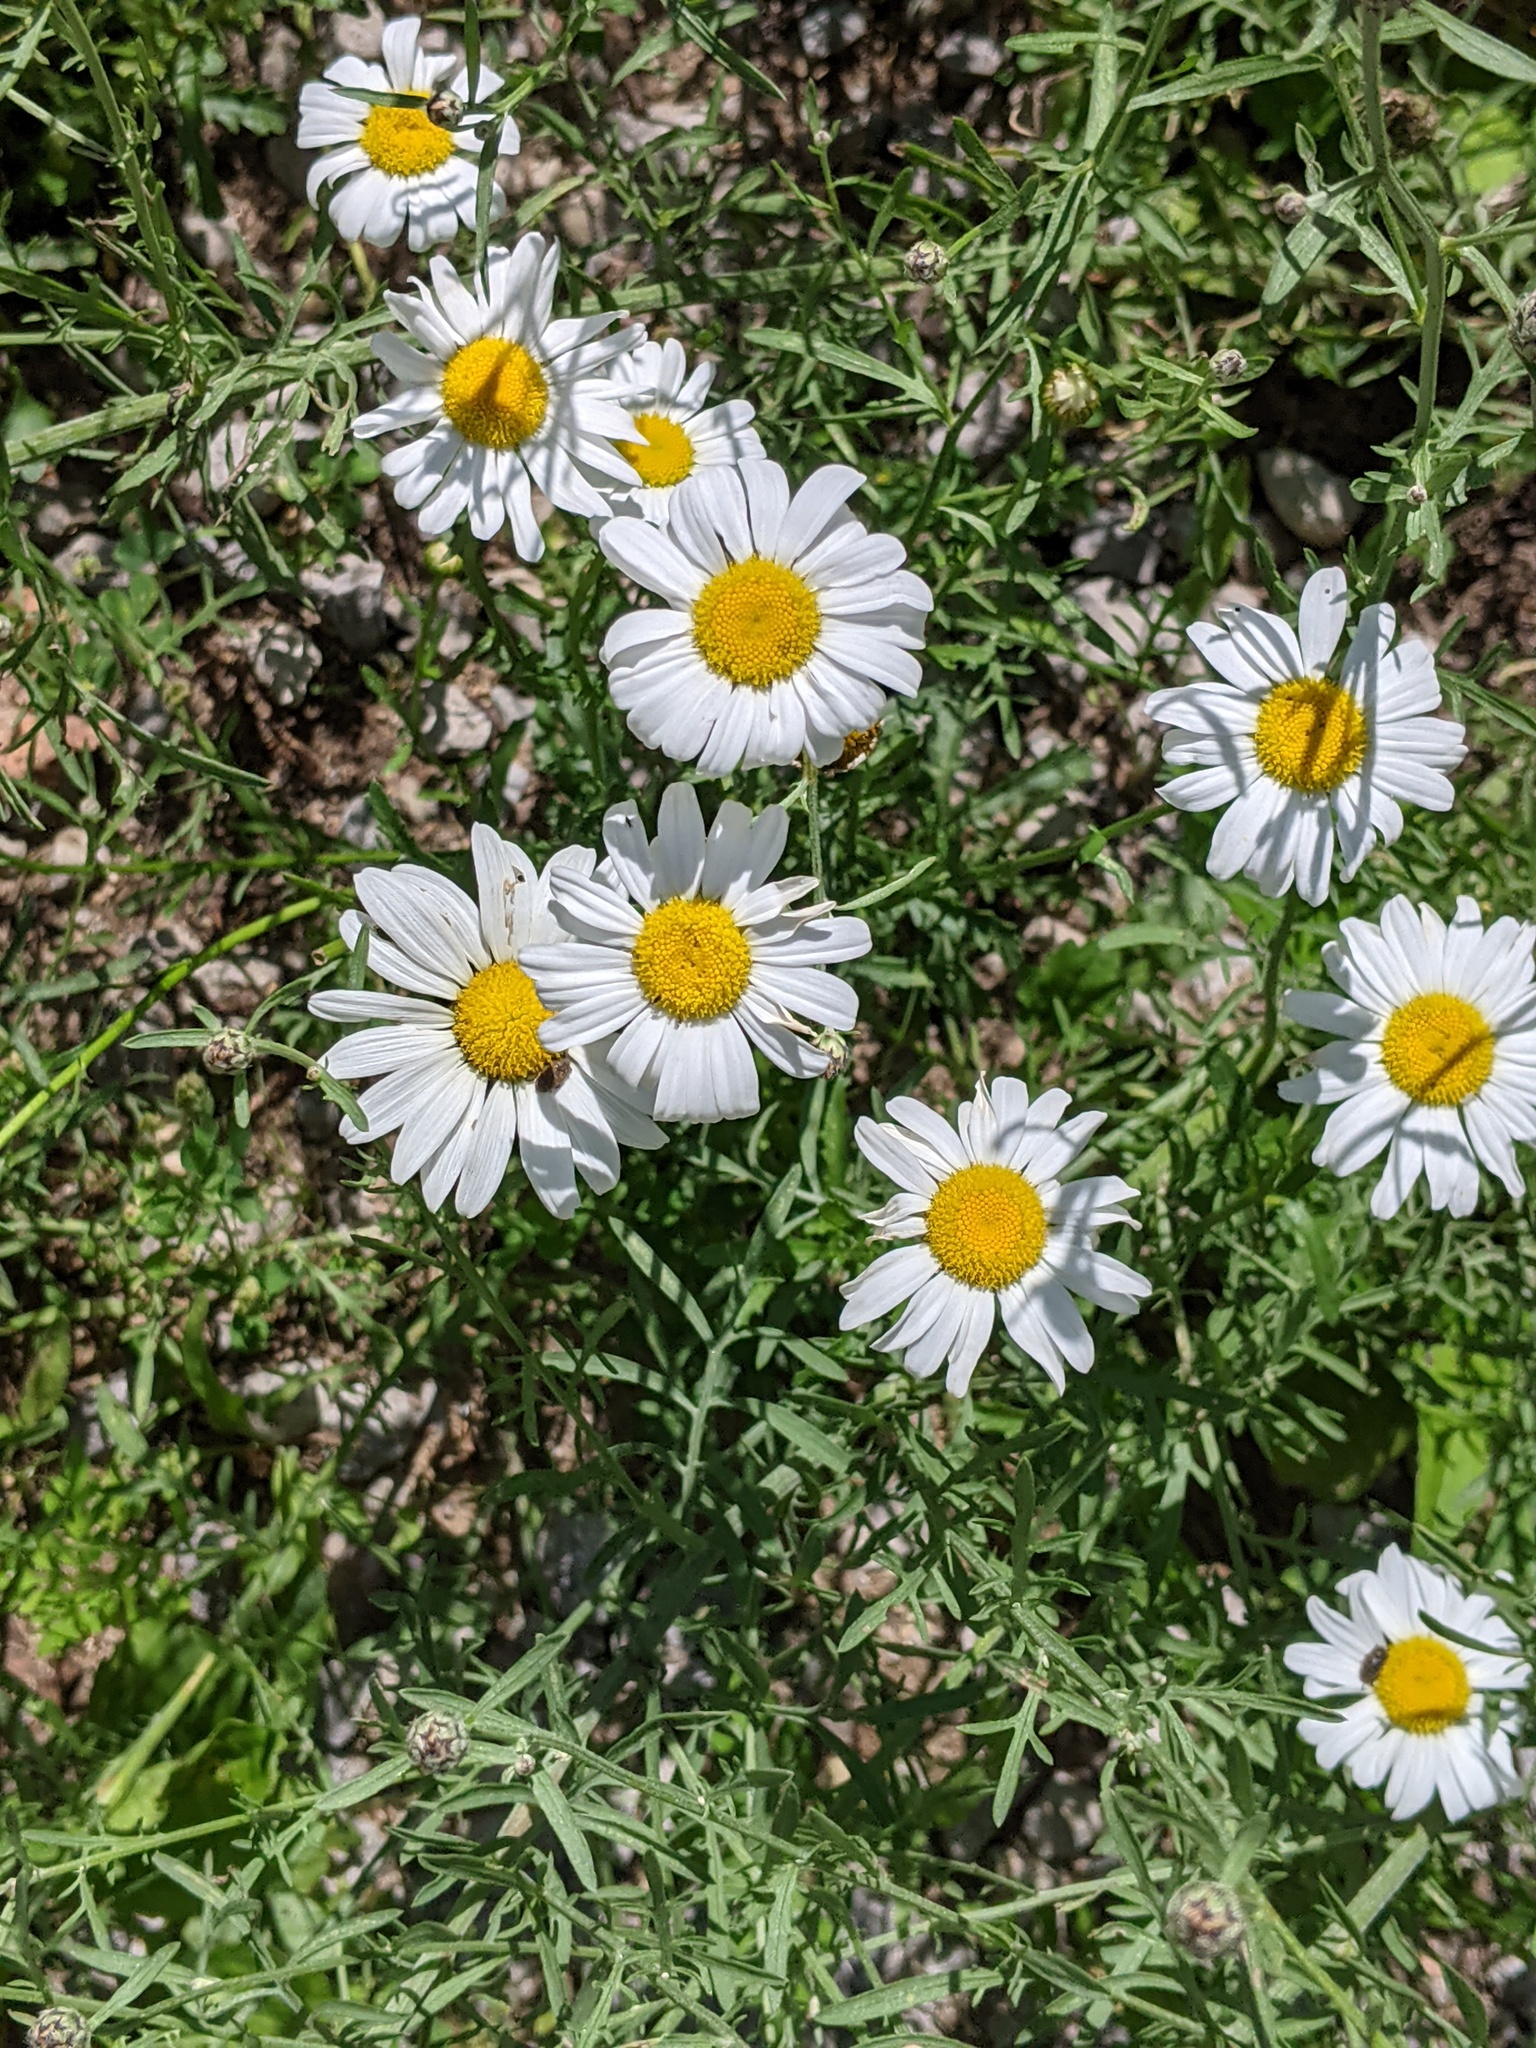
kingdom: Plantae
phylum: Tracheophyta
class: Magnoliopsida
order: Asterales
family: Asteraceae
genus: Leucanthemum
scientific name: Leucanthemum vulgare
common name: Oxeye daisy
